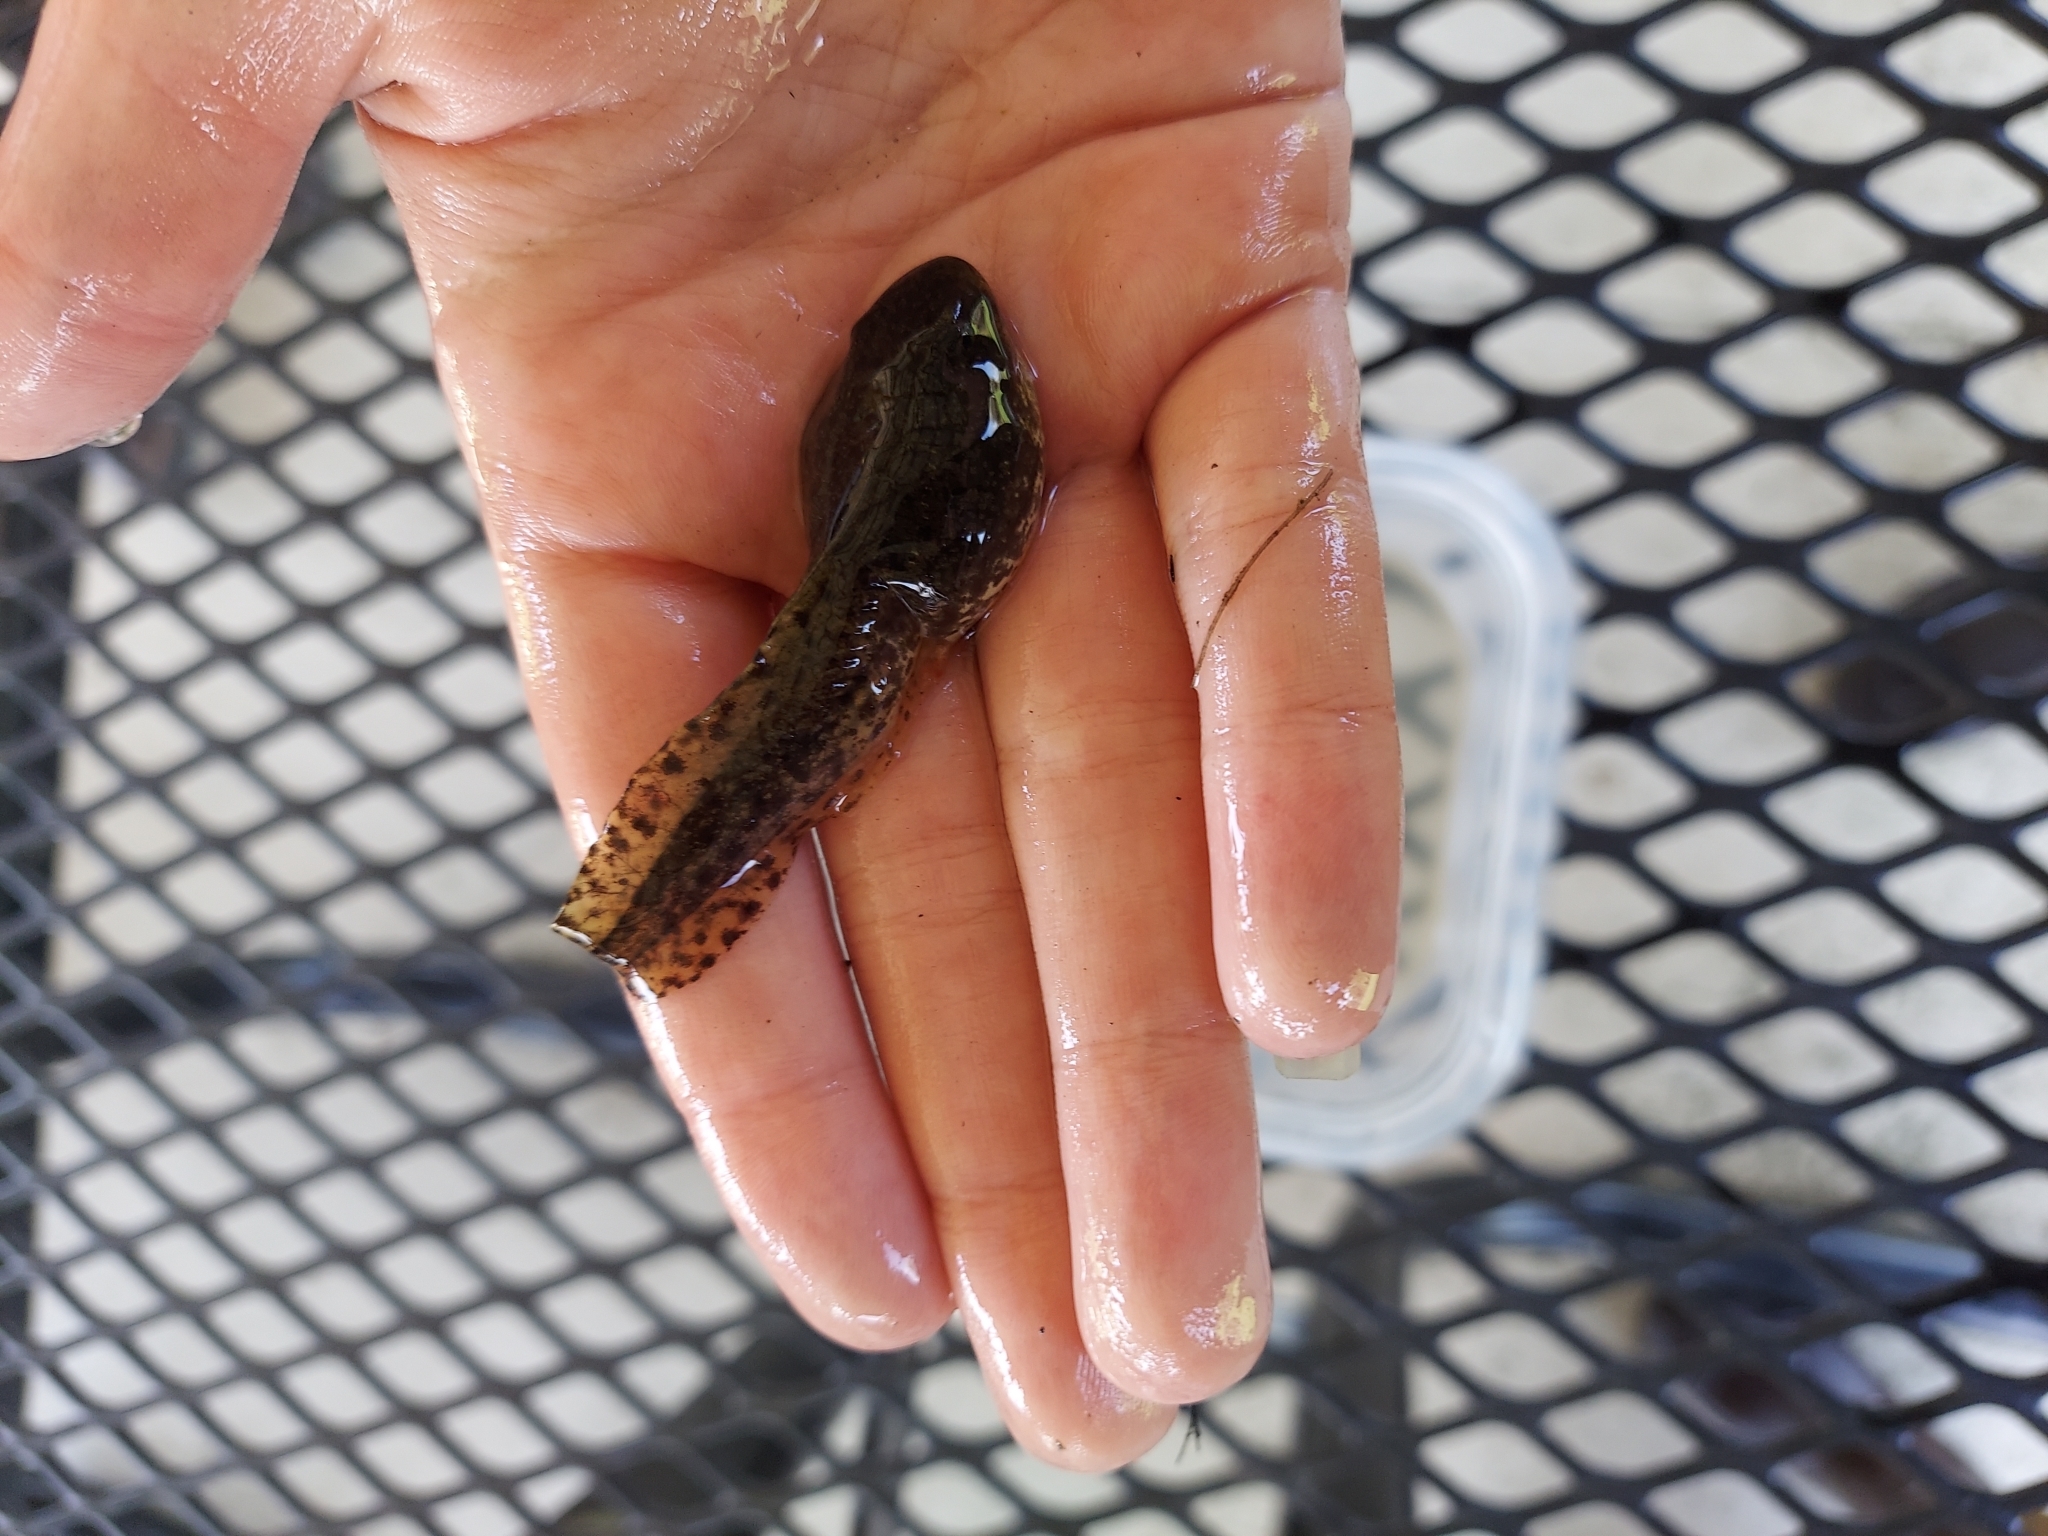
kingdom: Animalia
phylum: Chordata
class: Amphibia
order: Anura
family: Ranidae
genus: Lithobates
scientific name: Lithobates clamitans
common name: Green frog
